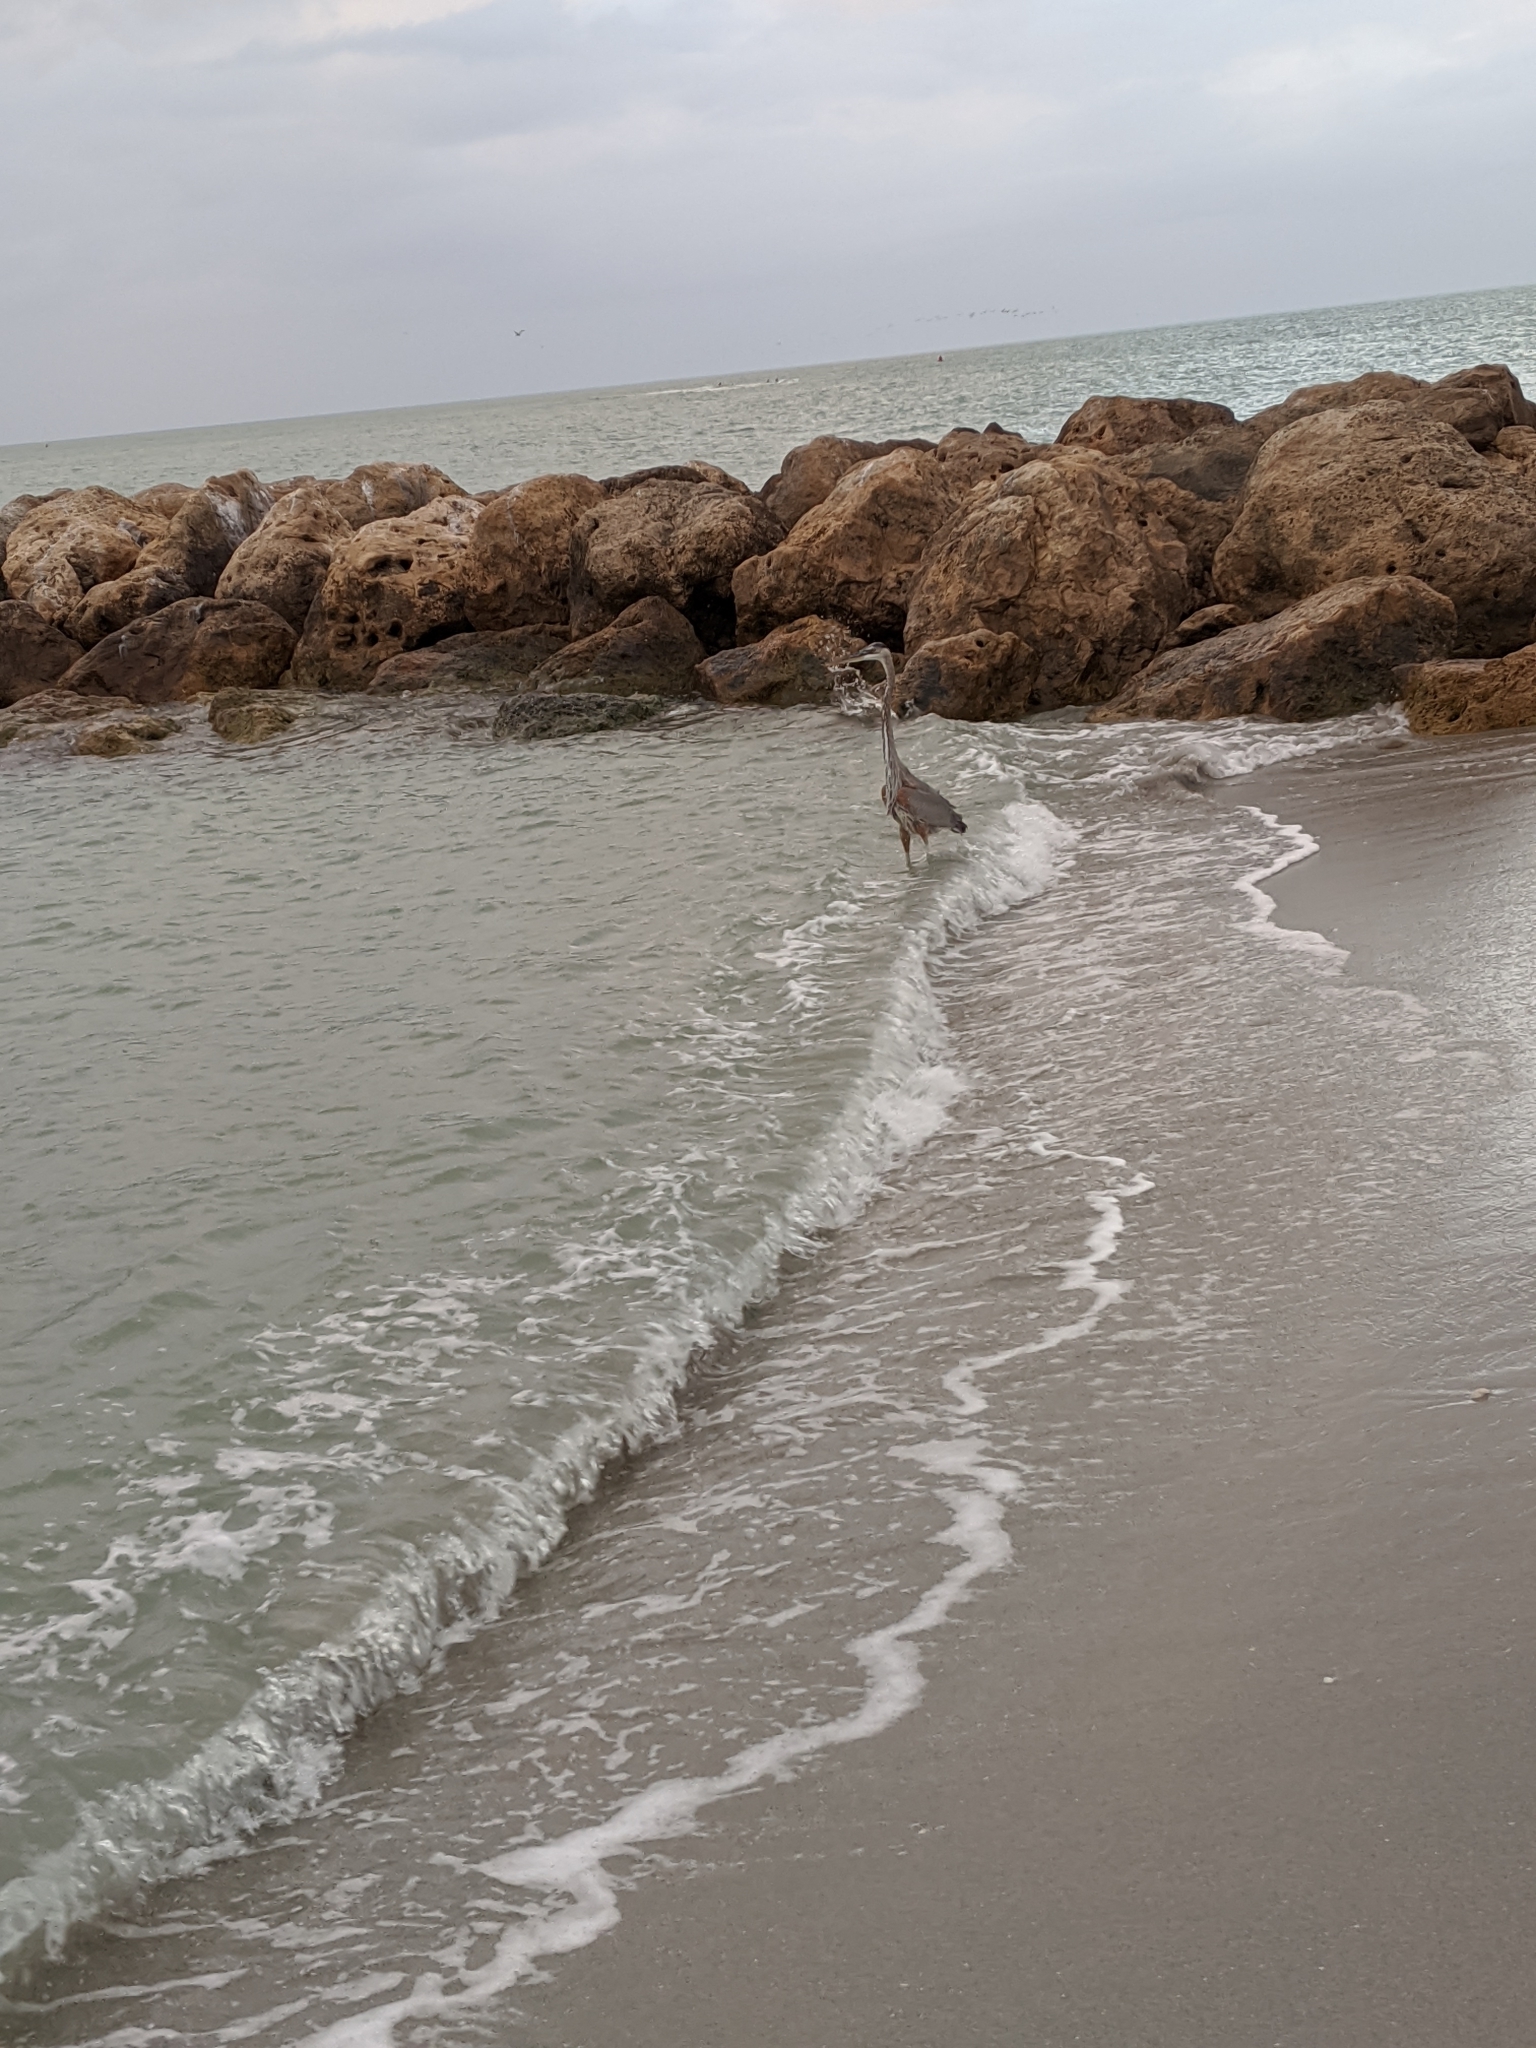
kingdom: Animalia
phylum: Chordata
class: Aves
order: Pelecaniformes
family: Ardeidae
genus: Ardea
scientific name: Ardea herodias
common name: Great blue heron
